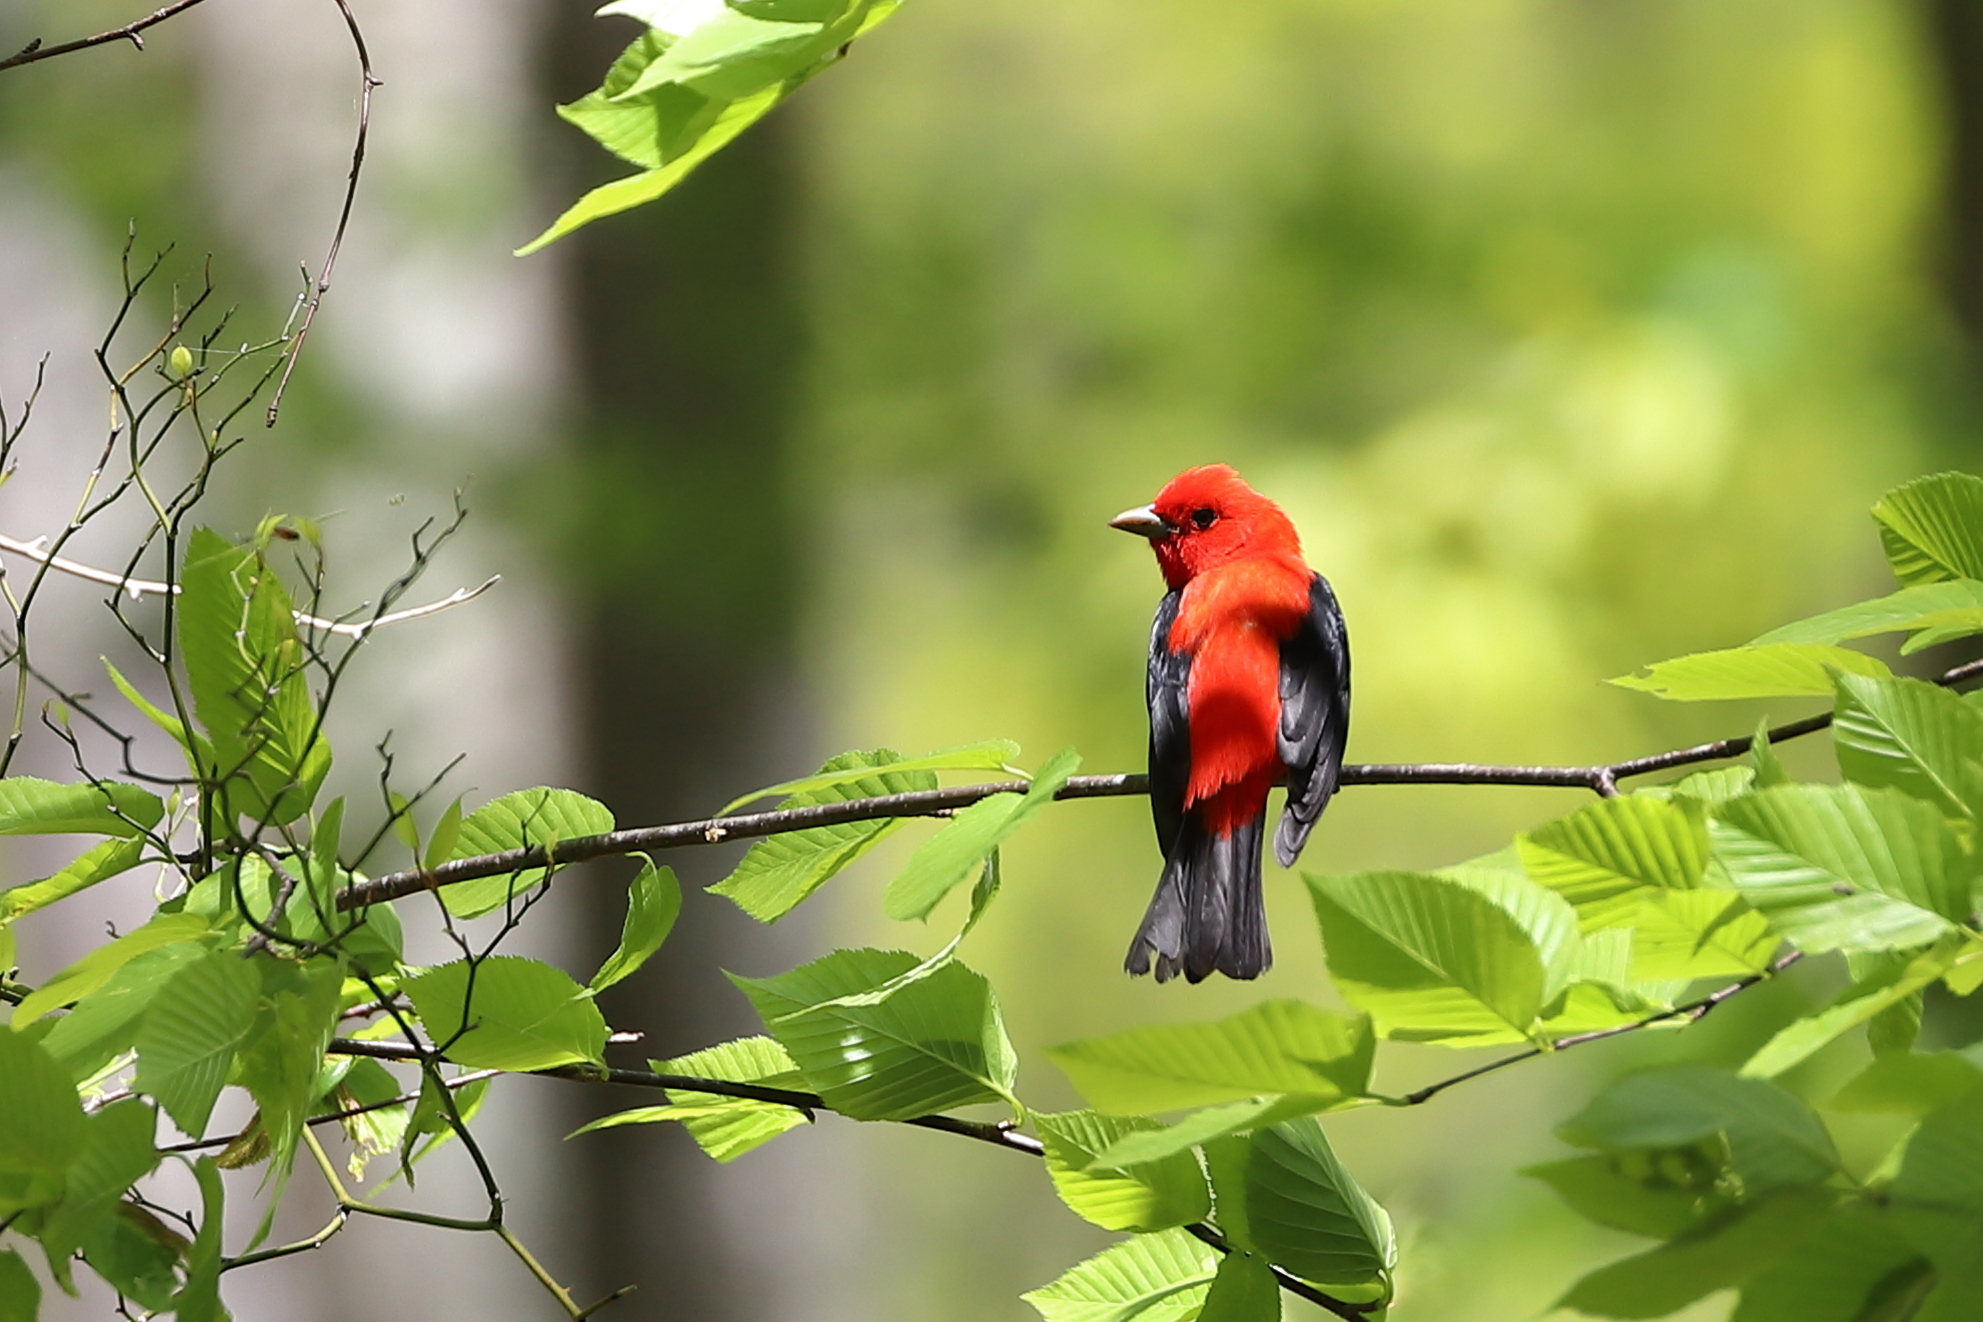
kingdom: Animalia
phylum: Chordata
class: Aves
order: Passeriformes
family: Cardinalidae
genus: Piranga
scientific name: Piranga olivacea
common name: Scarlet tanager
